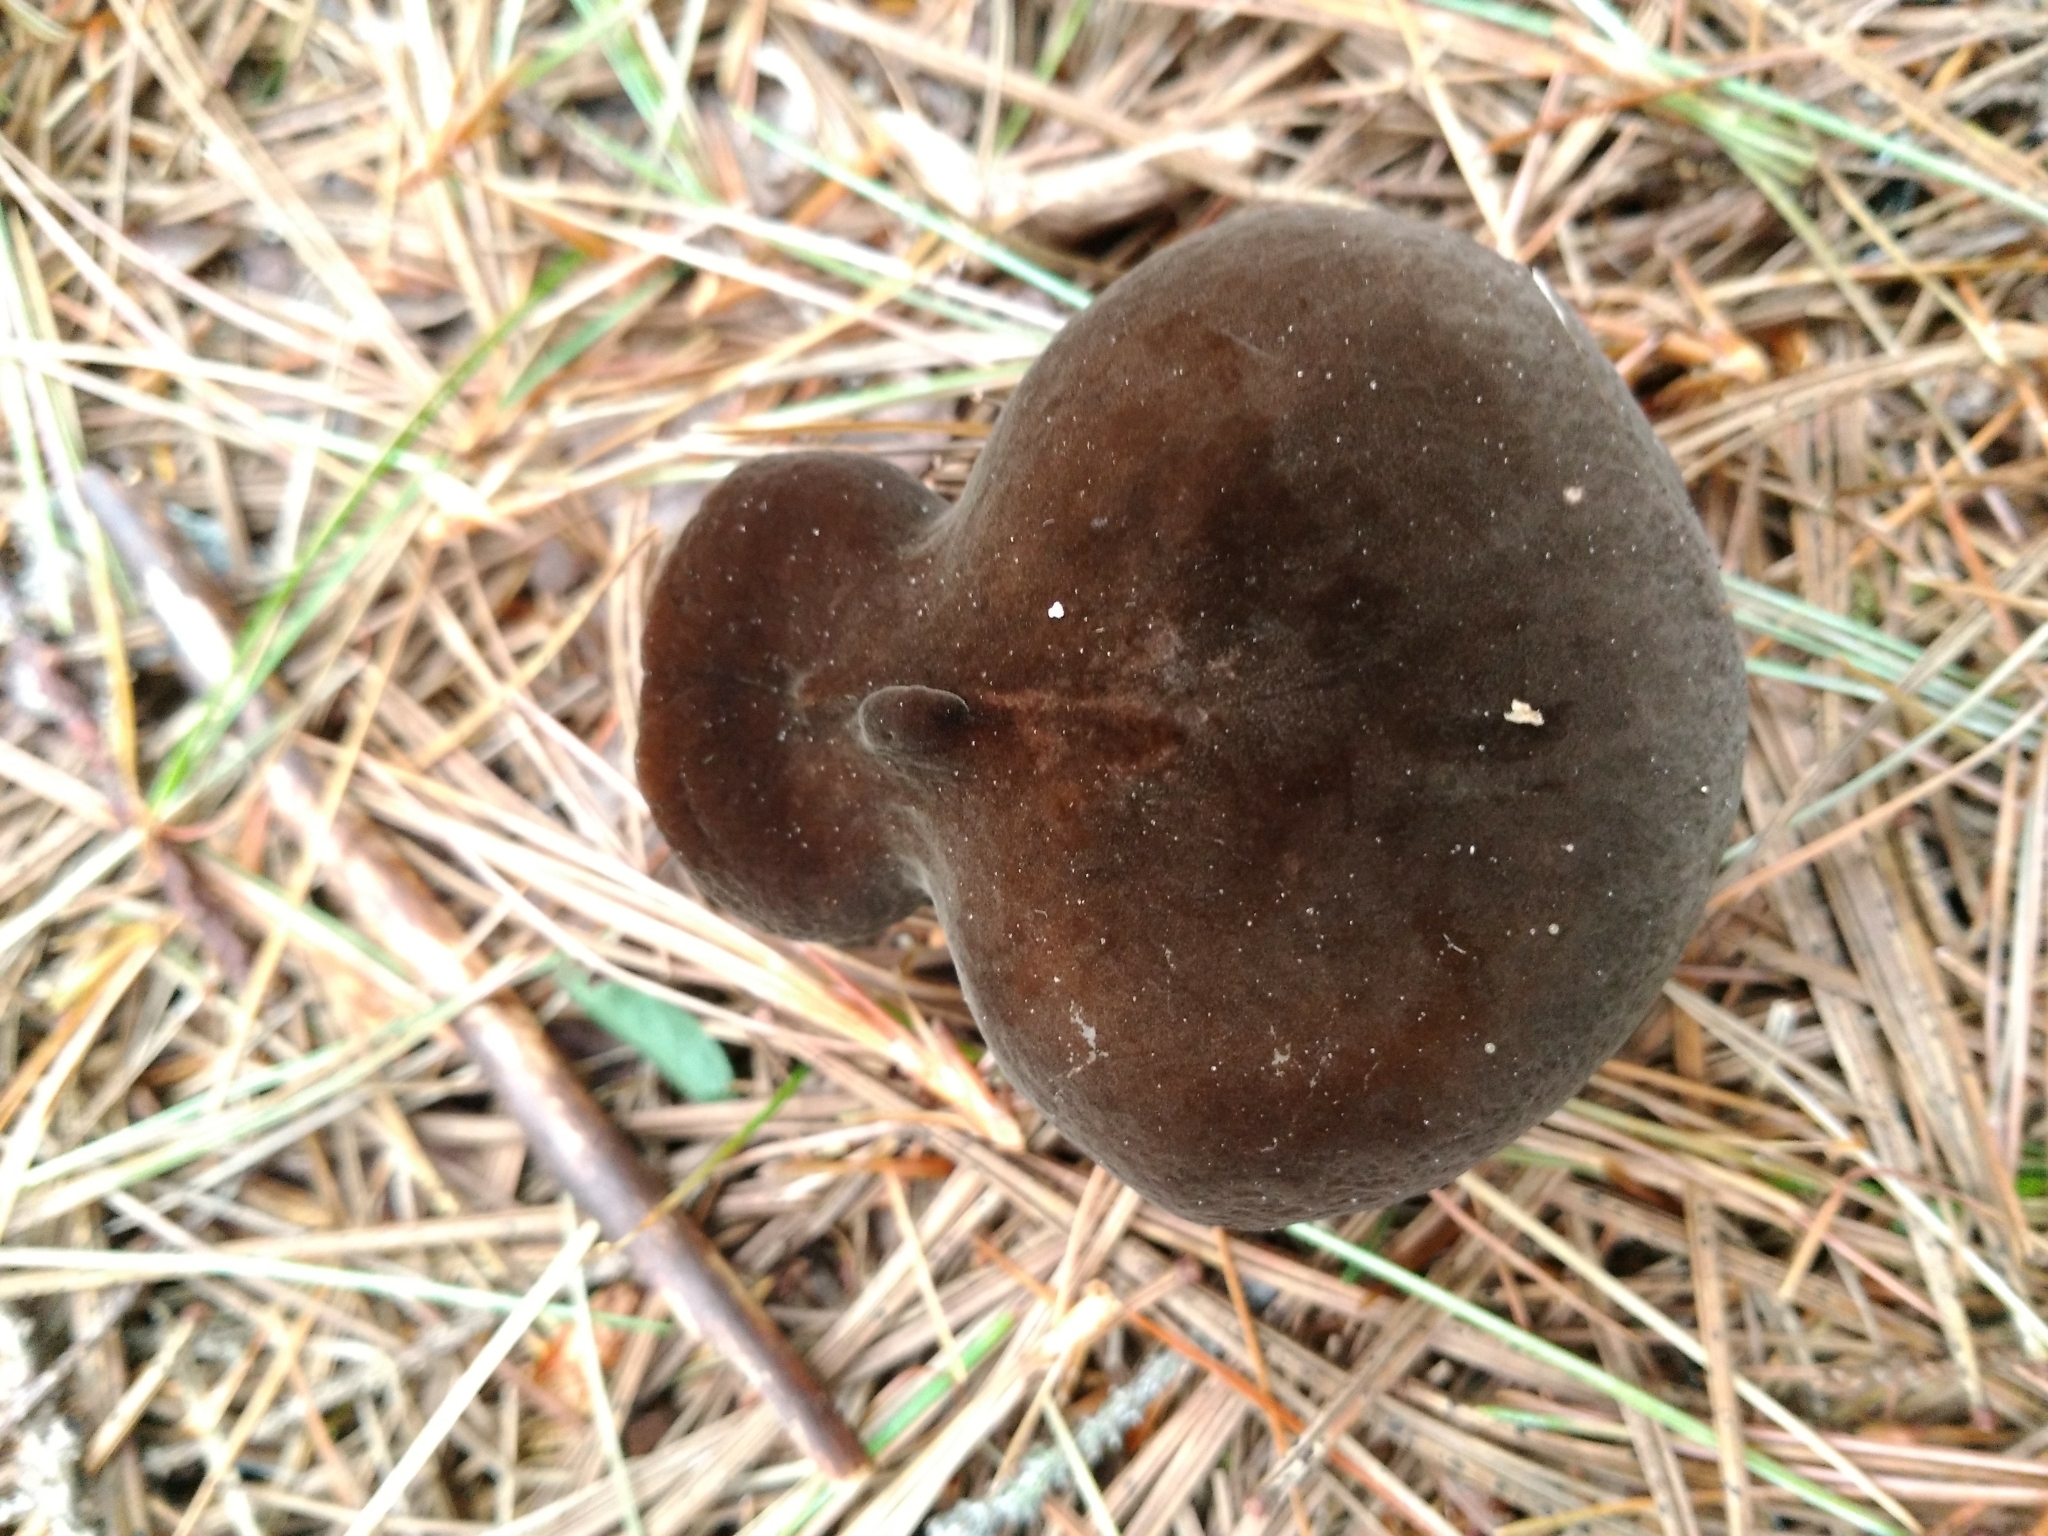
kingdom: Fungi
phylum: Basidiomycota
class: Agaricomycetes
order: Russulales
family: Russulaceae
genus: Lactarius
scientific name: Lactarius lignyotus
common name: Velvet milkcap
